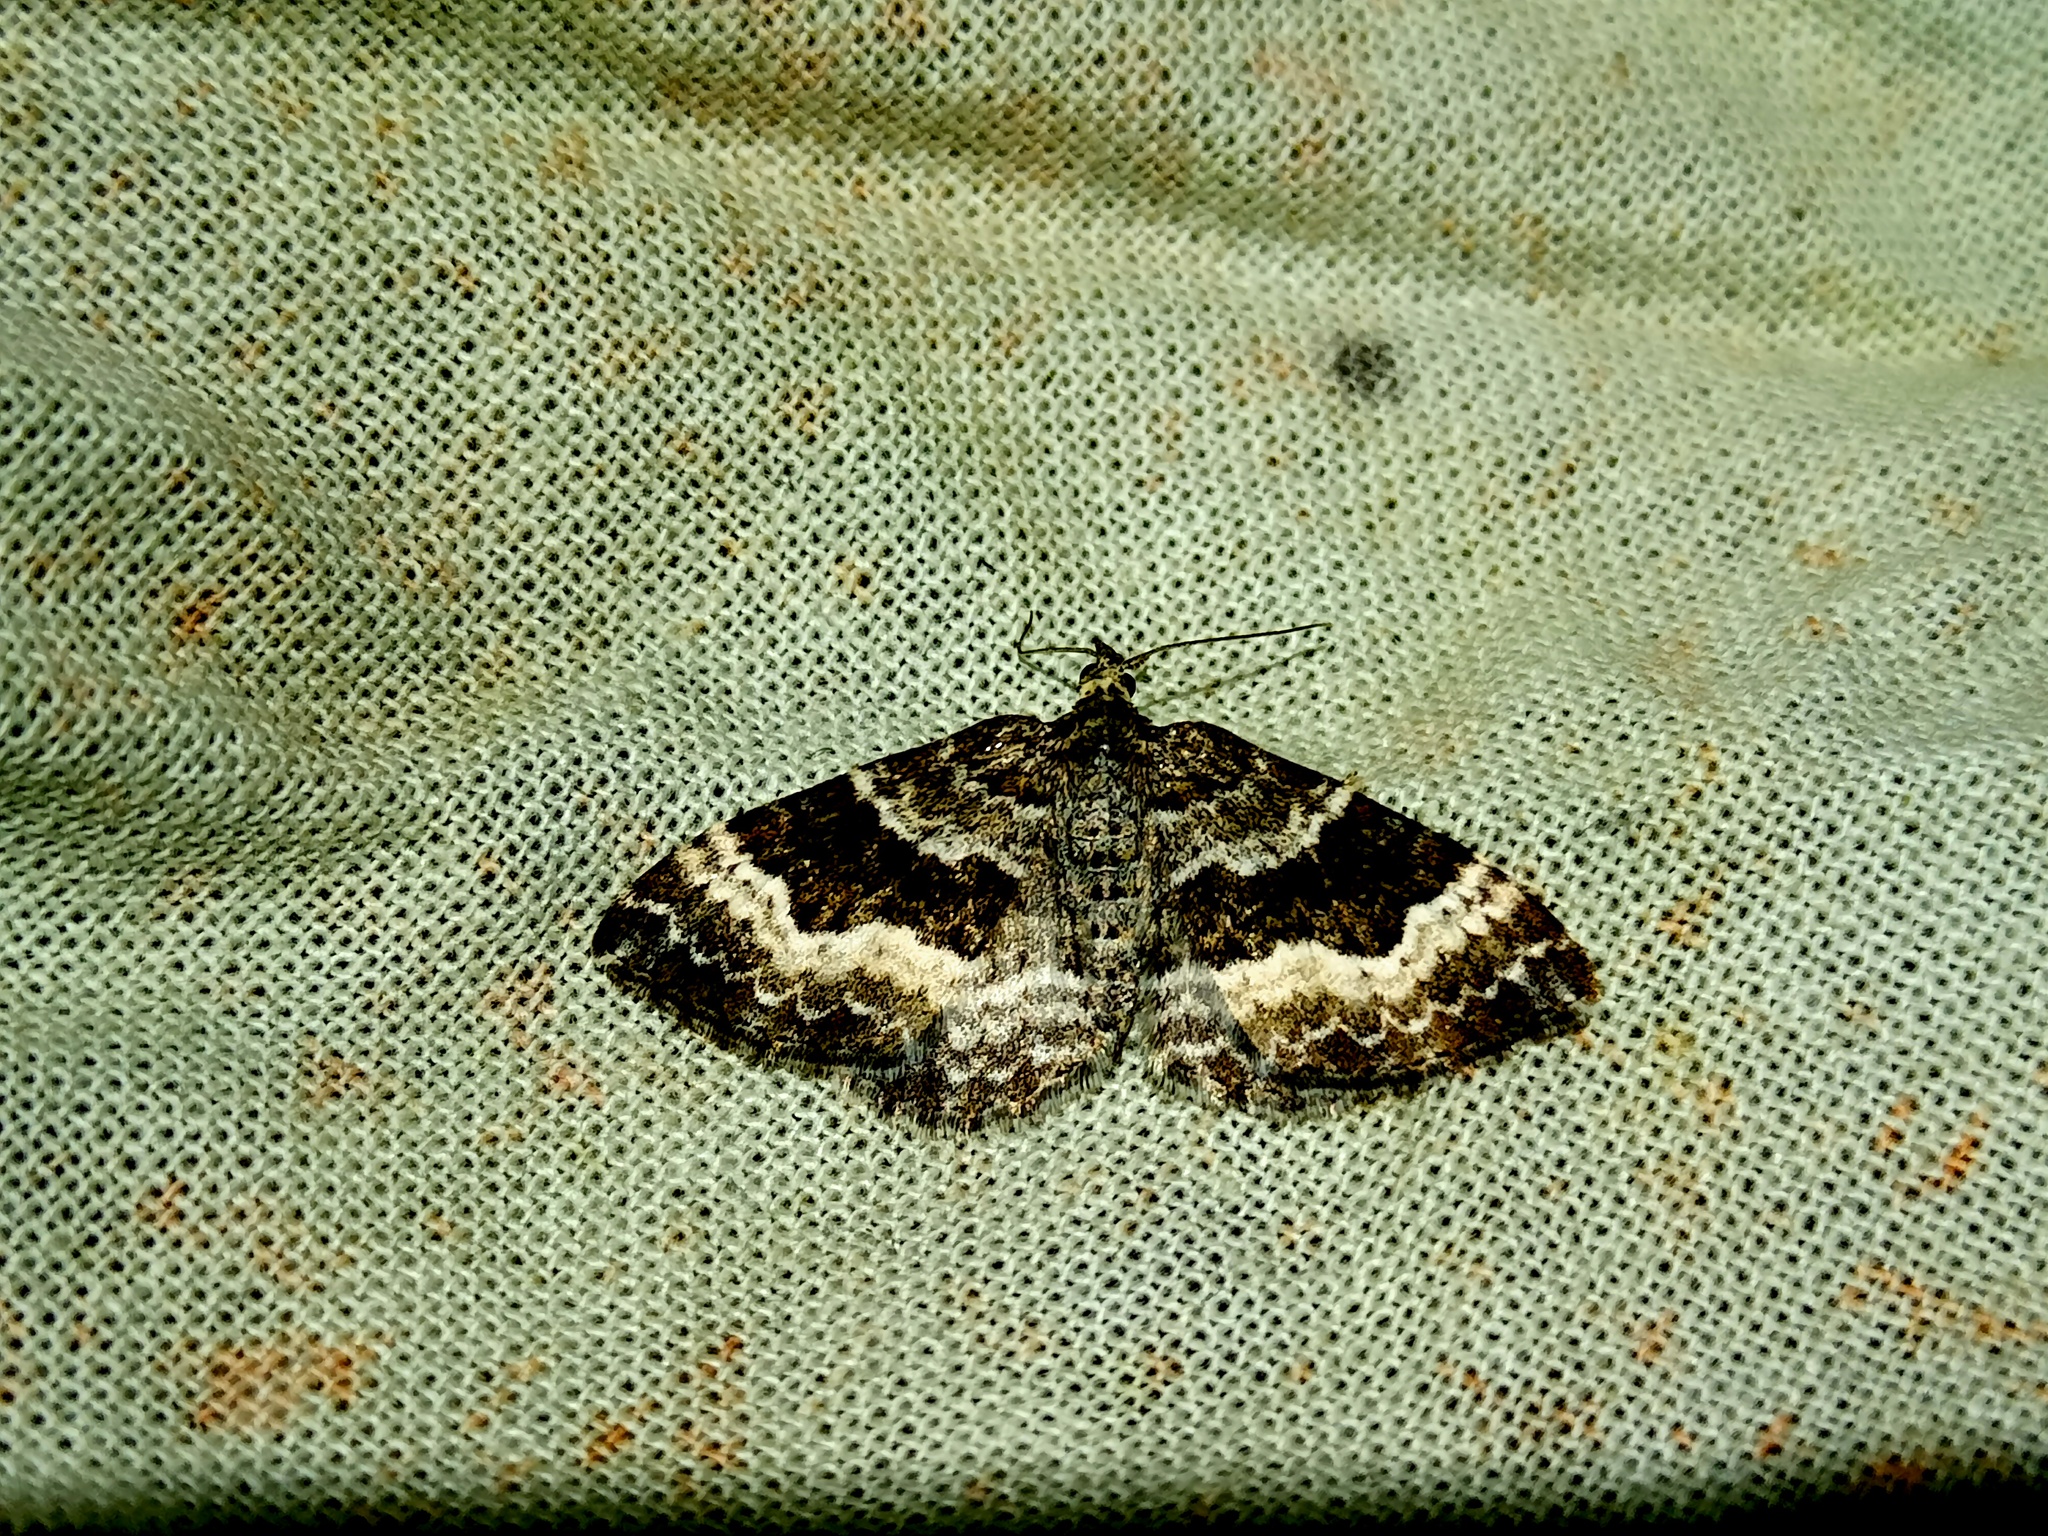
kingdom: Animalia
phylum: Arthropoda
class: Insecta
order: Lepidoptera
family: Geometridae
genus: Epirrhoe
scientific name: Epirrhoe alternata
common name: Common carpet
